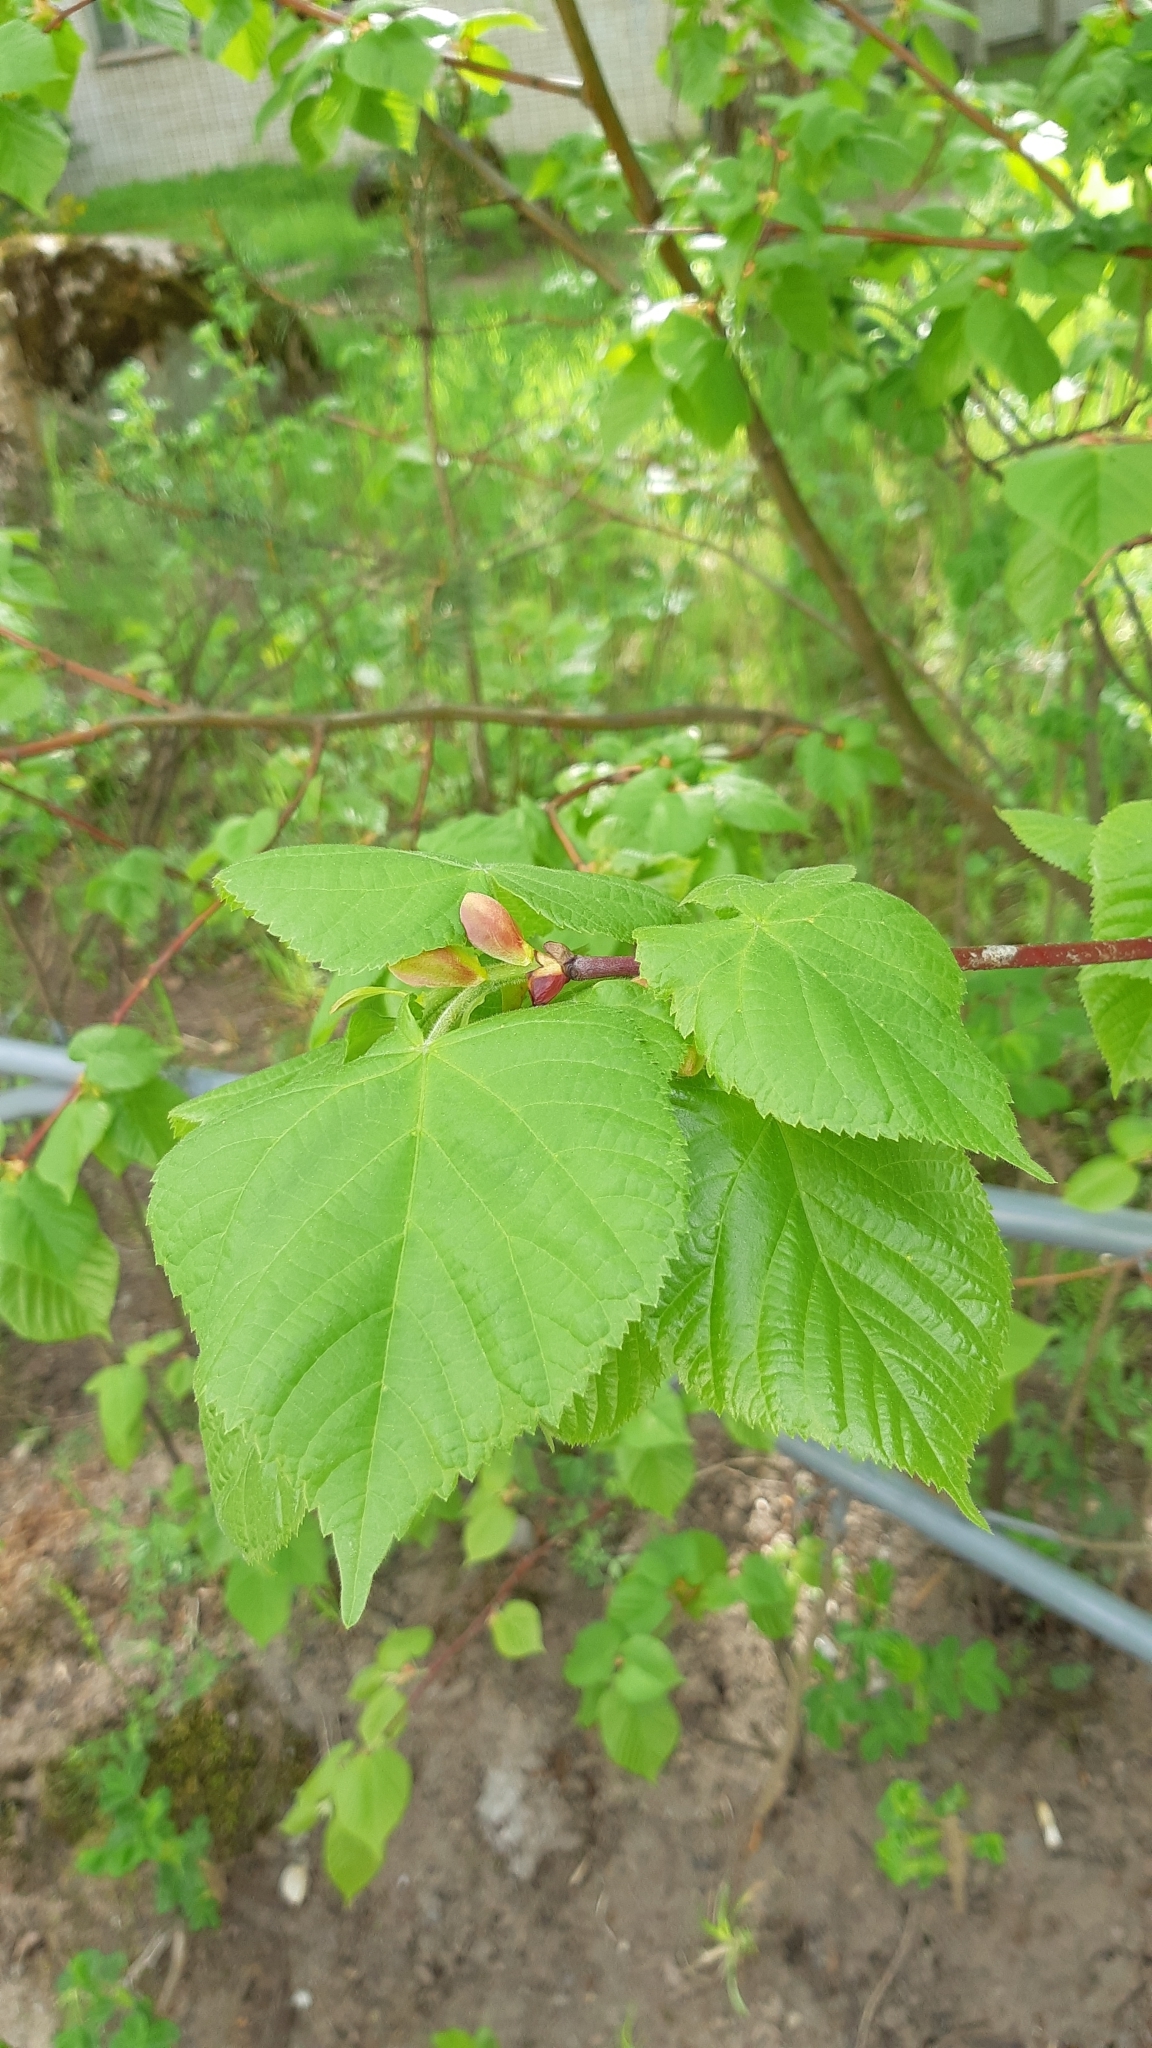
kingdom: Plantae
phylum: Tracheophyta
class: Magnoliopsida
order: Malvales
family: Malvaceae
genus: Tilia
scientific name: Tilia cordata
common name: Small-leaved lime
